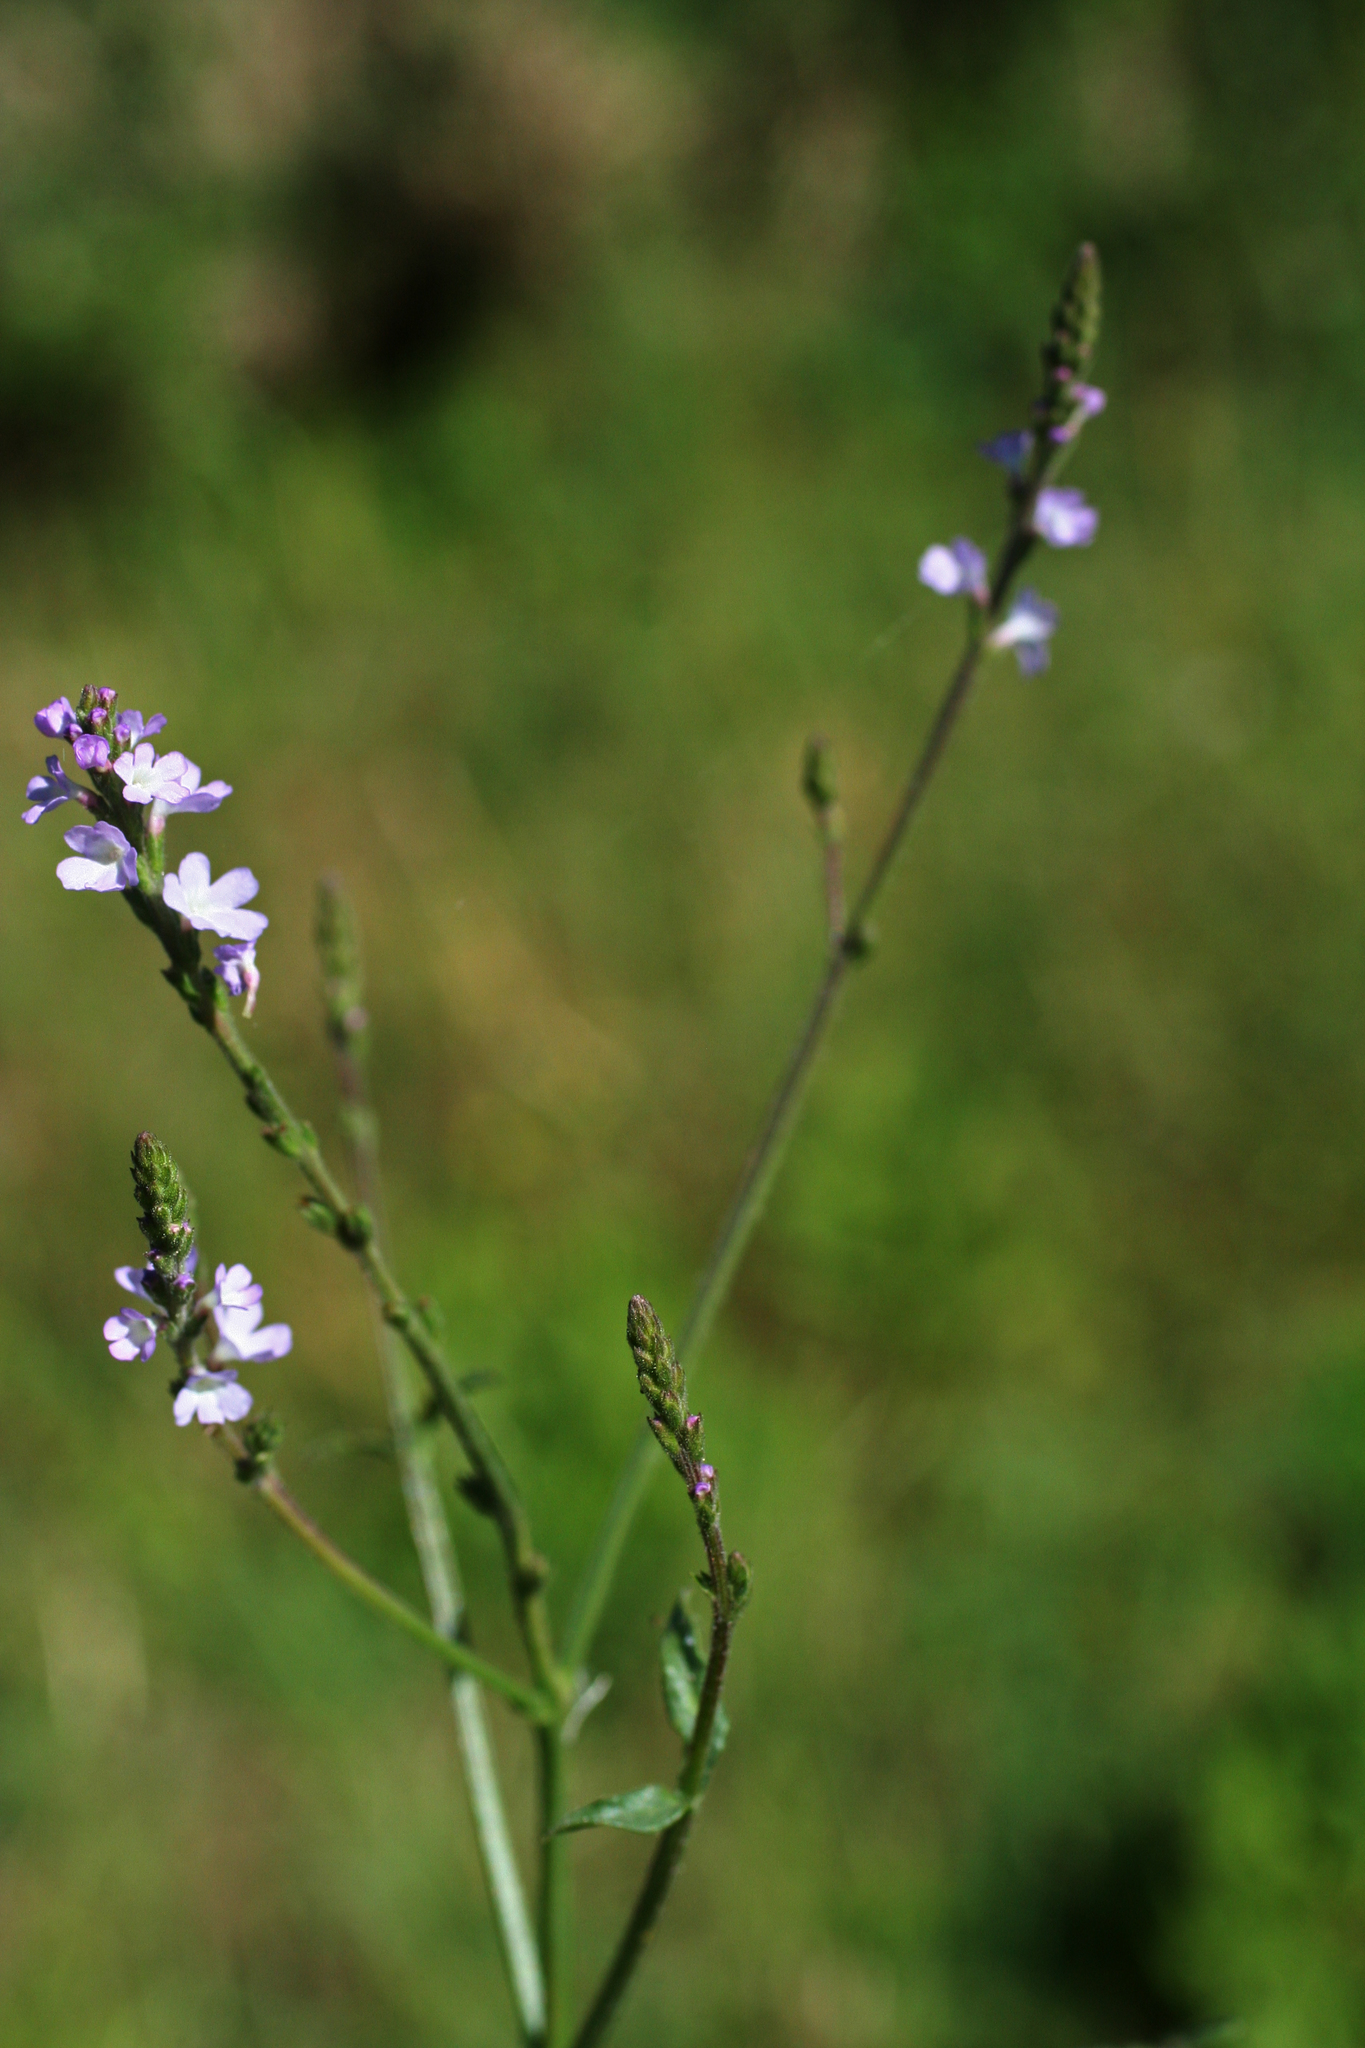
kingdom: Plantae
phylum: Tracheophyta
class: Magnoliopsida
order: Lamiales
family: Verbenaceae
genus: Verbena
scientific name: Verbena officinalis
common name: Vervain
